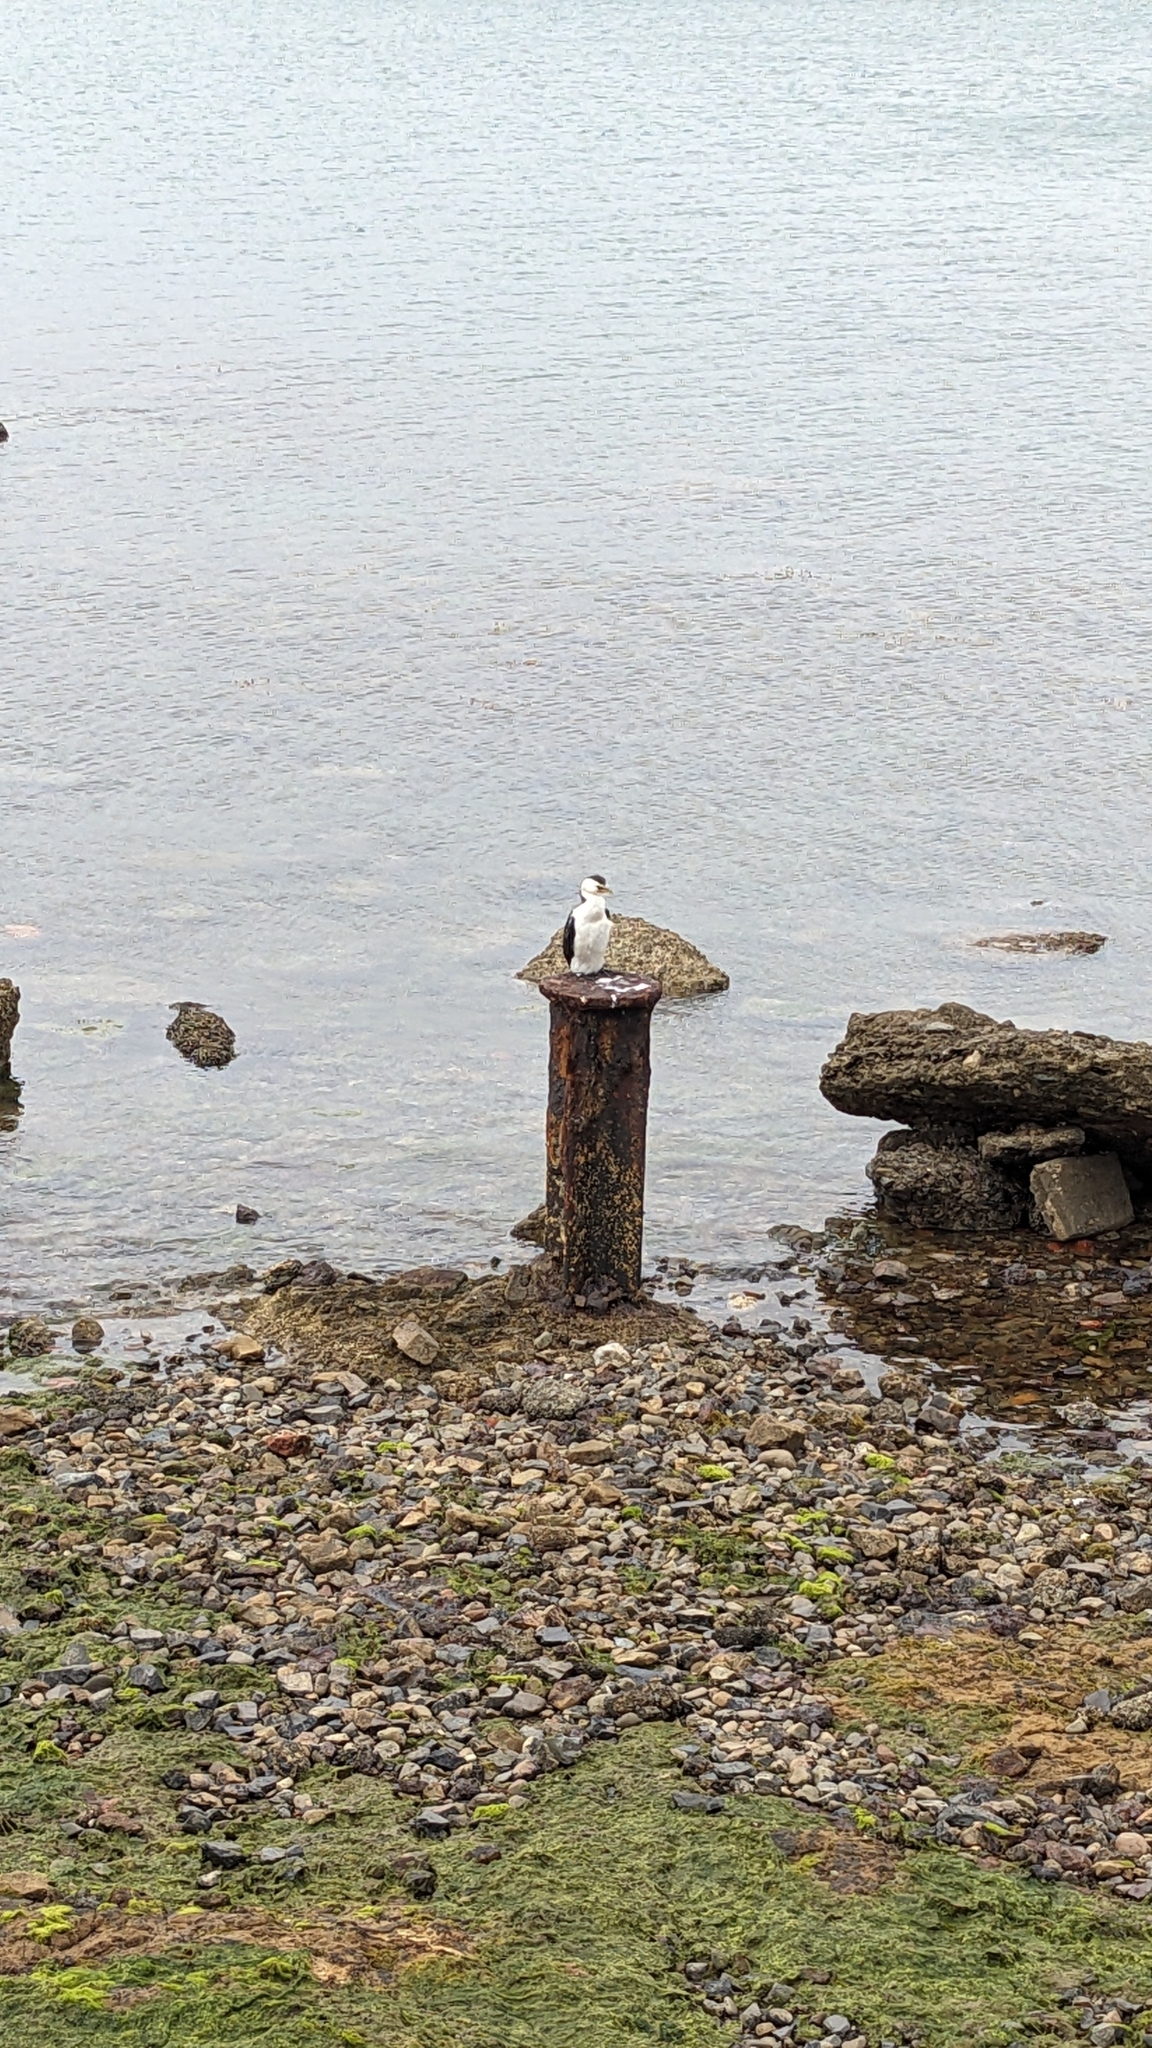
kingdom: Animalia
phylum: Chordata
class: Aves
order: Suliformes
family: Phalacrocoracidae
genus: Microcarbo
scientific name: Microcarbo melanoleucos
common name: Little pied cormorant
